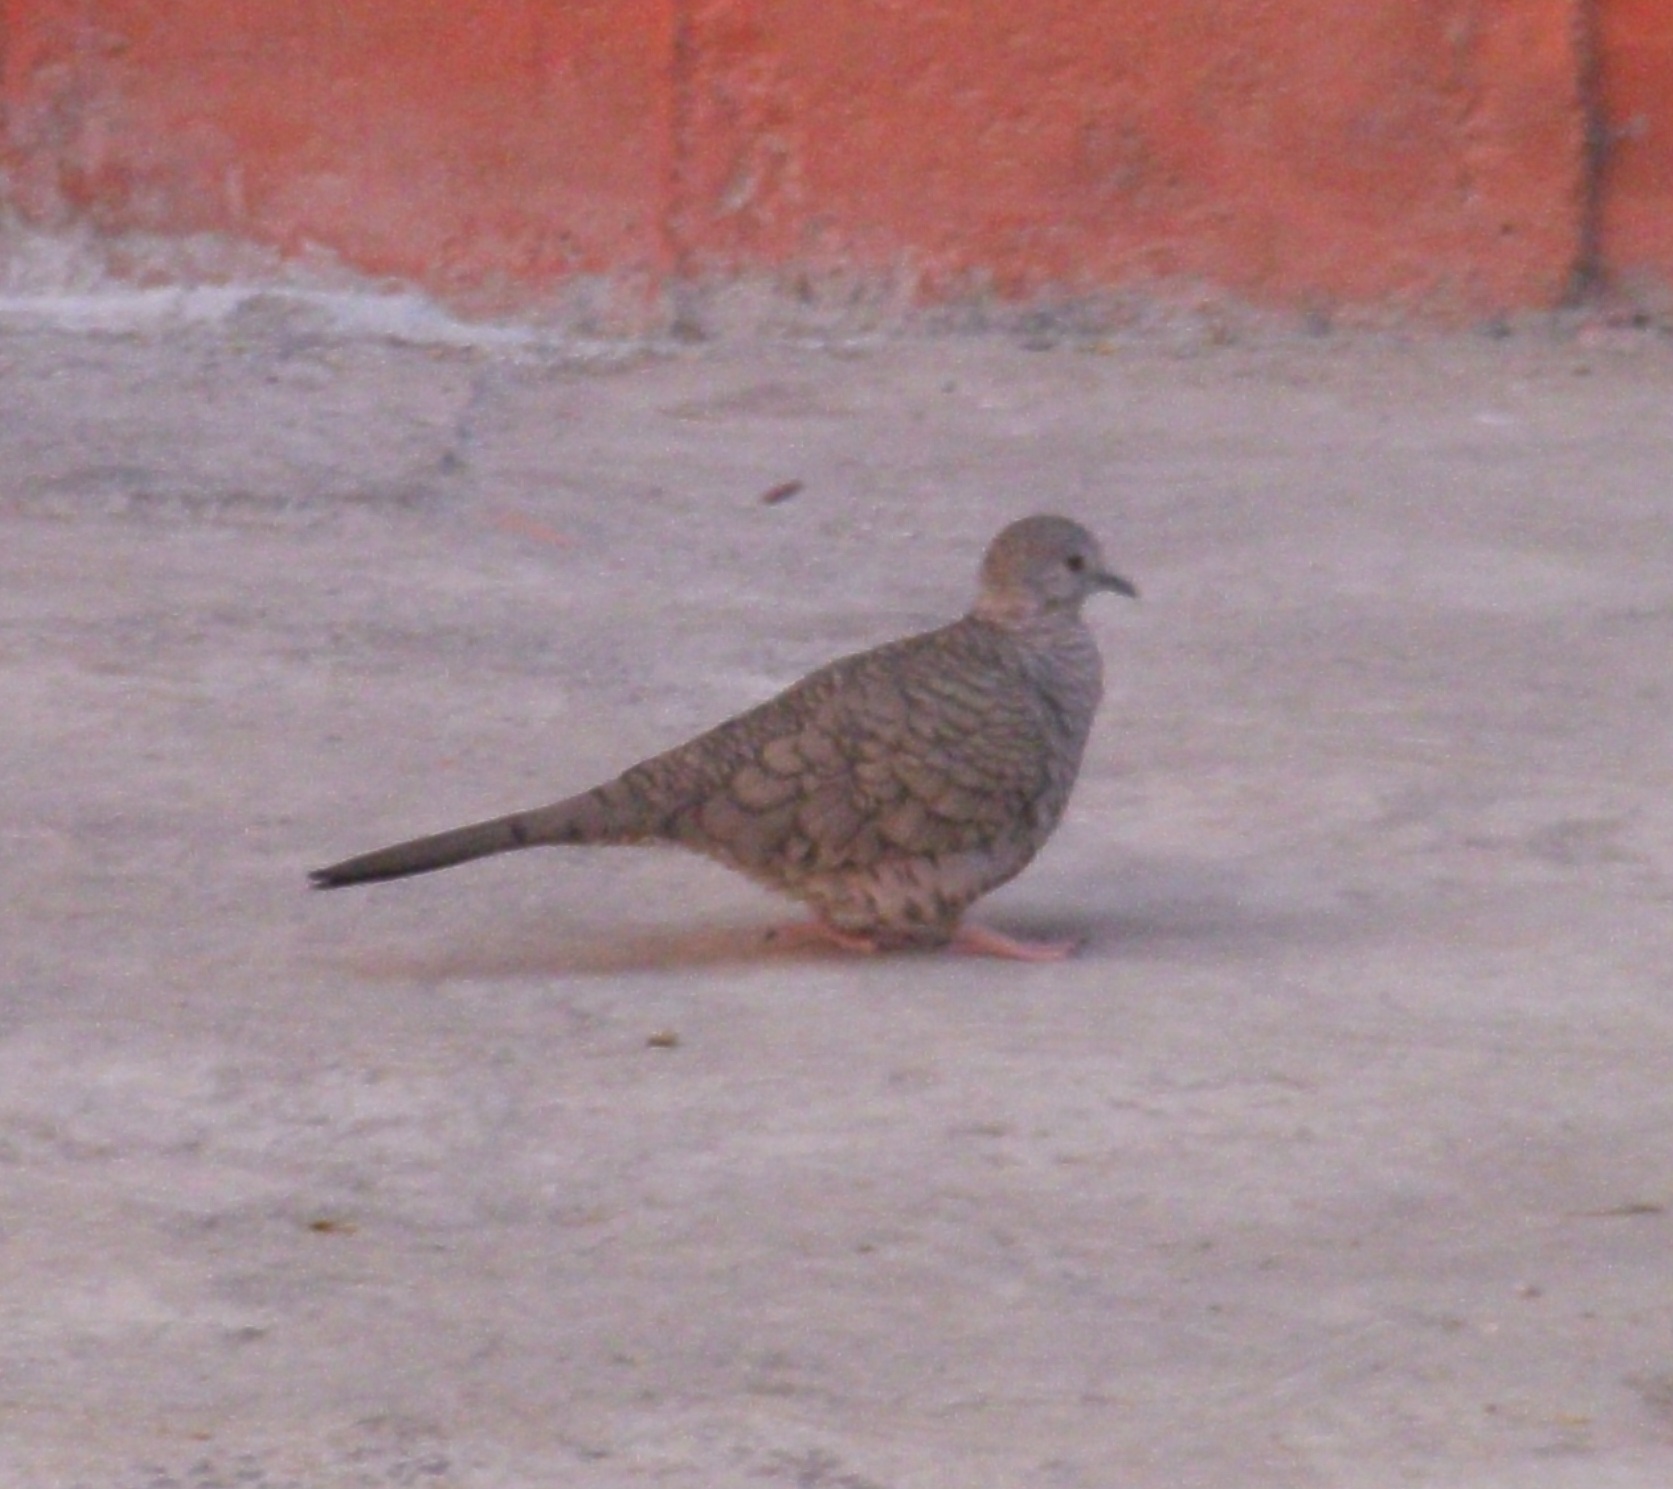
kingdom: Animalia
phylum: Chordata
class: Aves
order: Columbiformes
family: Columbidae
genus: Columbina
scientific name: Columbina inca
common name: Inca dove
